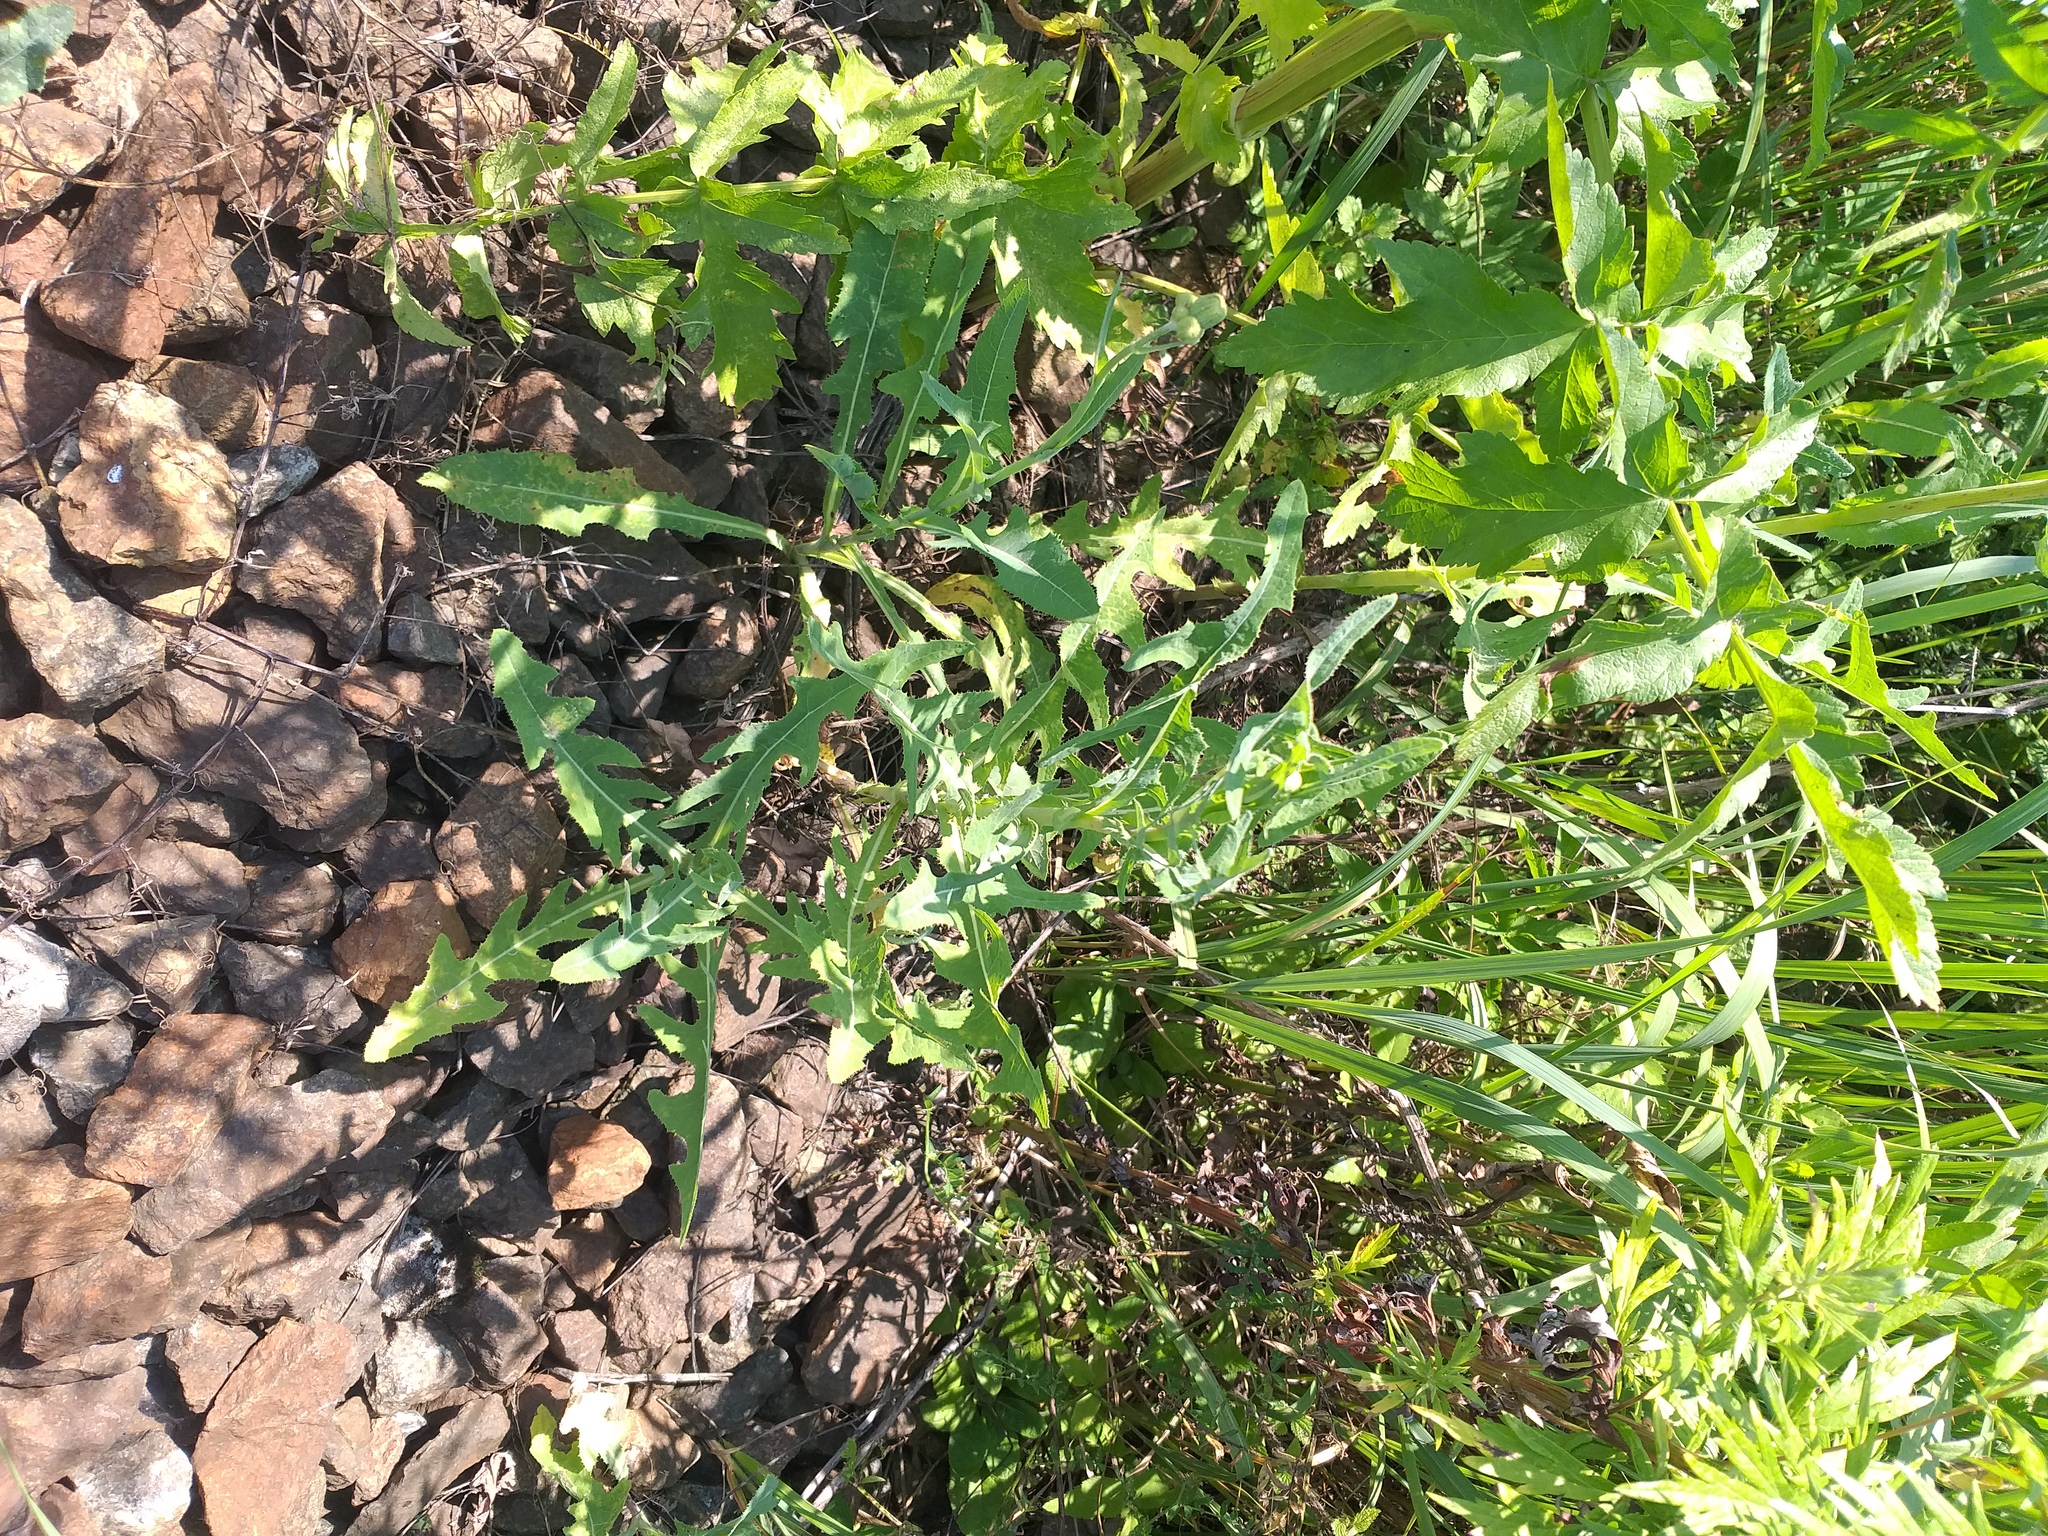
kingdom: Plantae
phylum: Tracheophyta
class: Magnoliopsida
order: Asterales
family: Asteraceae
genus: Sonchus
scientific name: Sonchus arvensis
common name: Perennial sow-thistle
